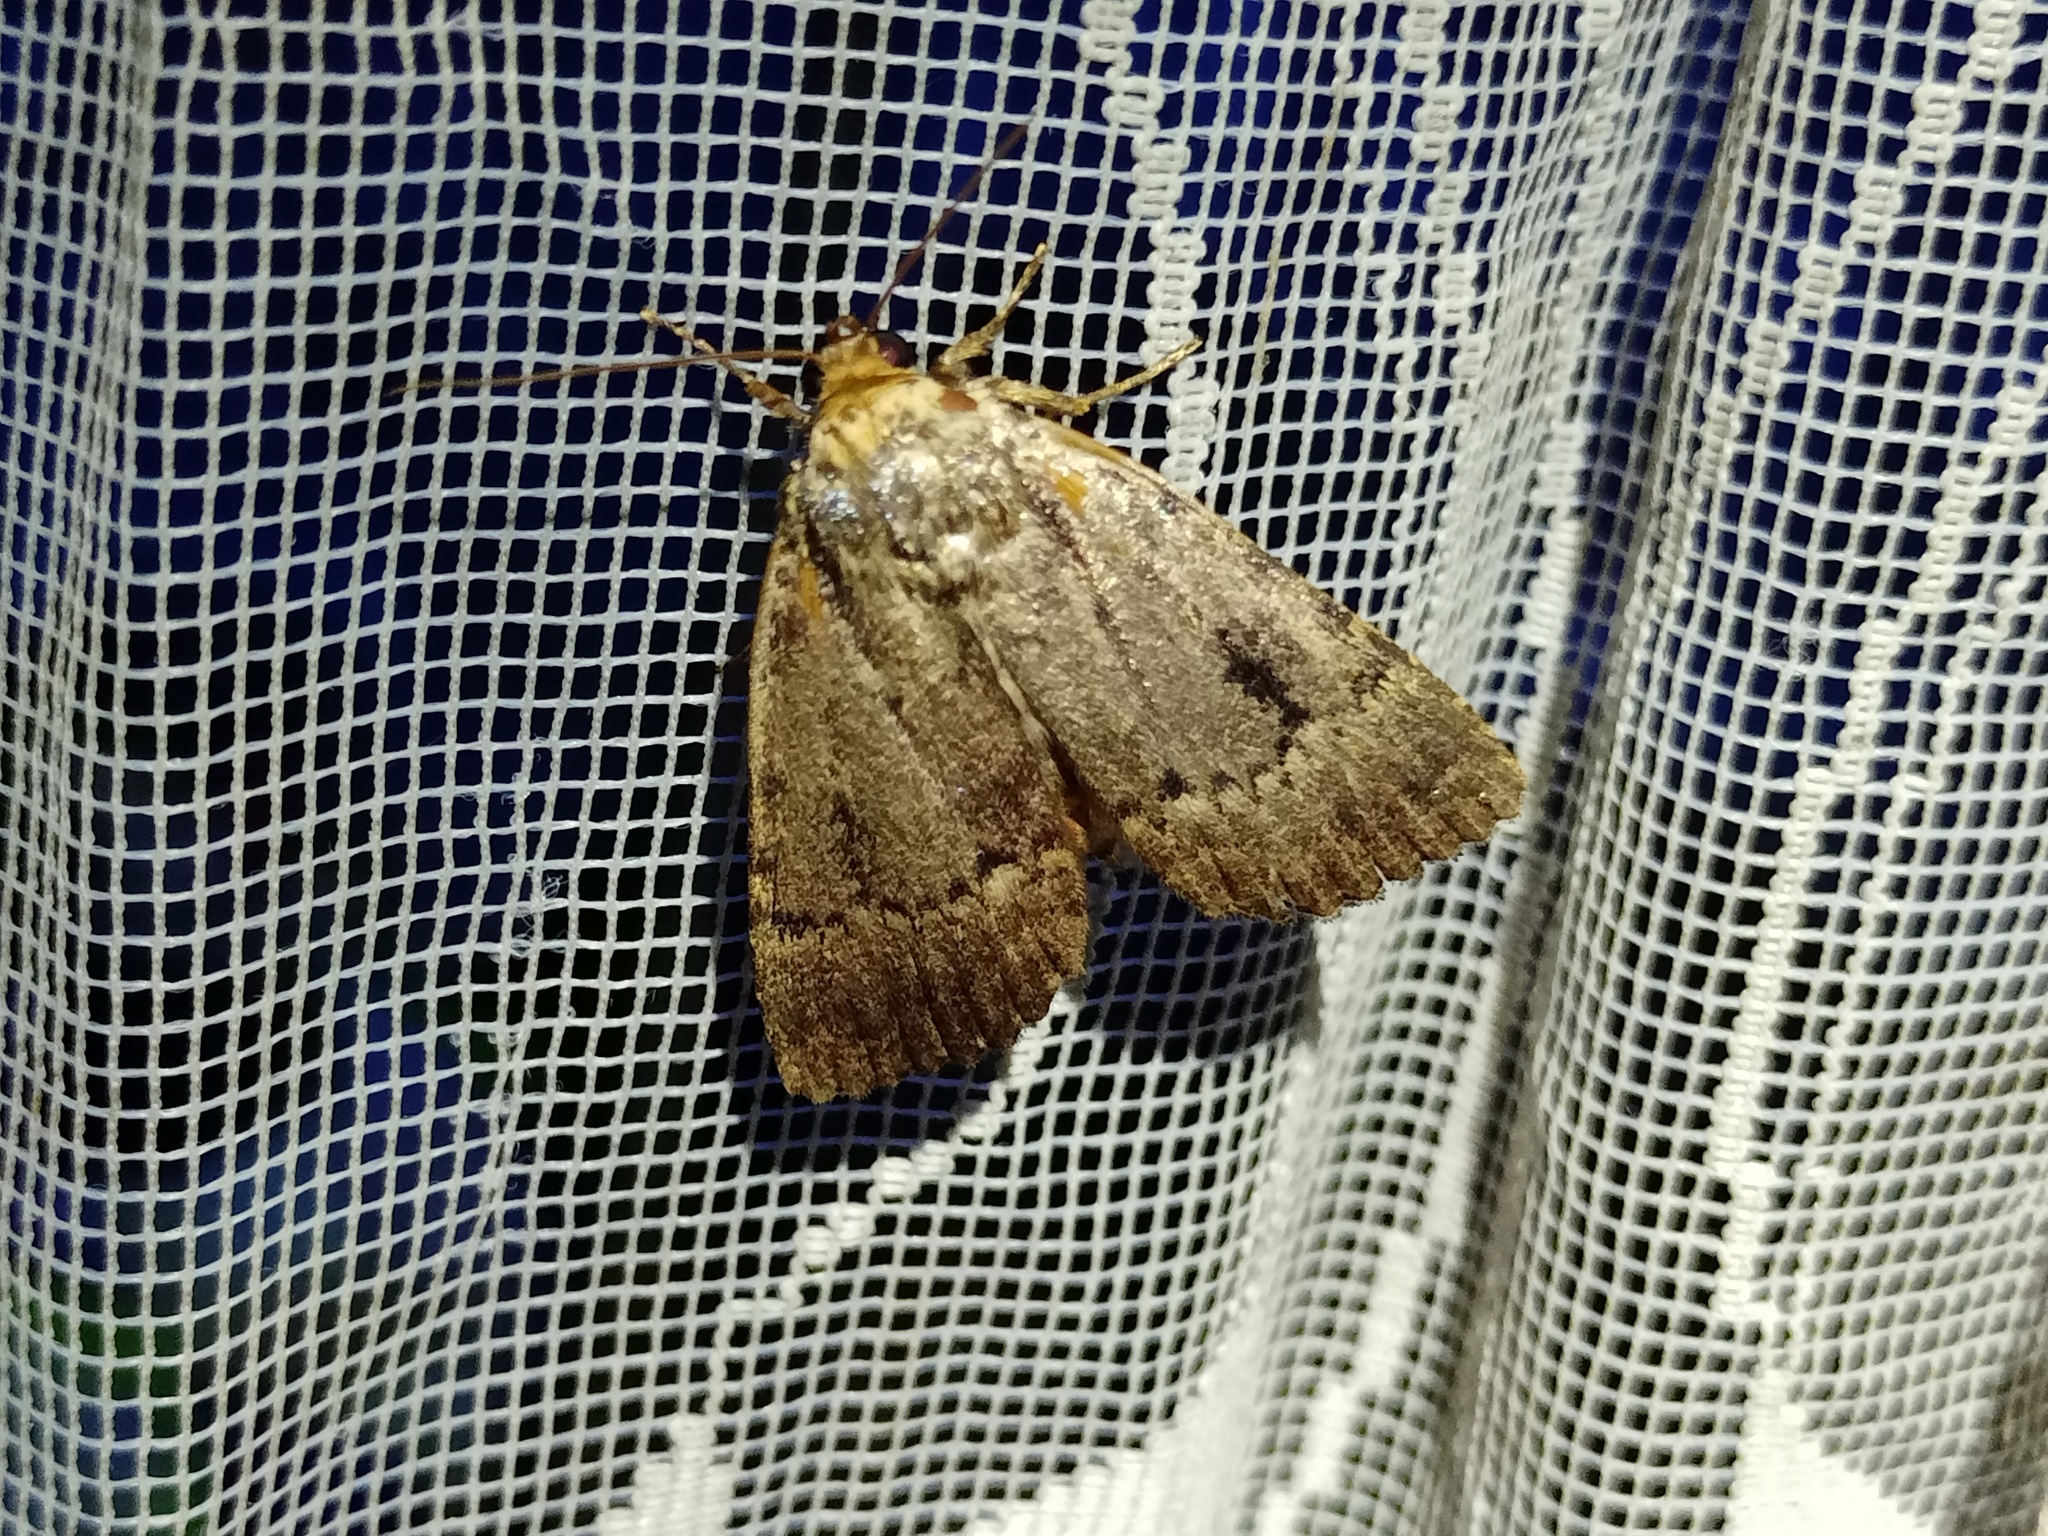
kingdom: Animalia
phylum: Arthropoda
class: Insecta
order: Lepidoptera
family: Noctuidae
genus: Amphipyra
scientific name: Amphipyra pyramidea
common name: Copper underwing
